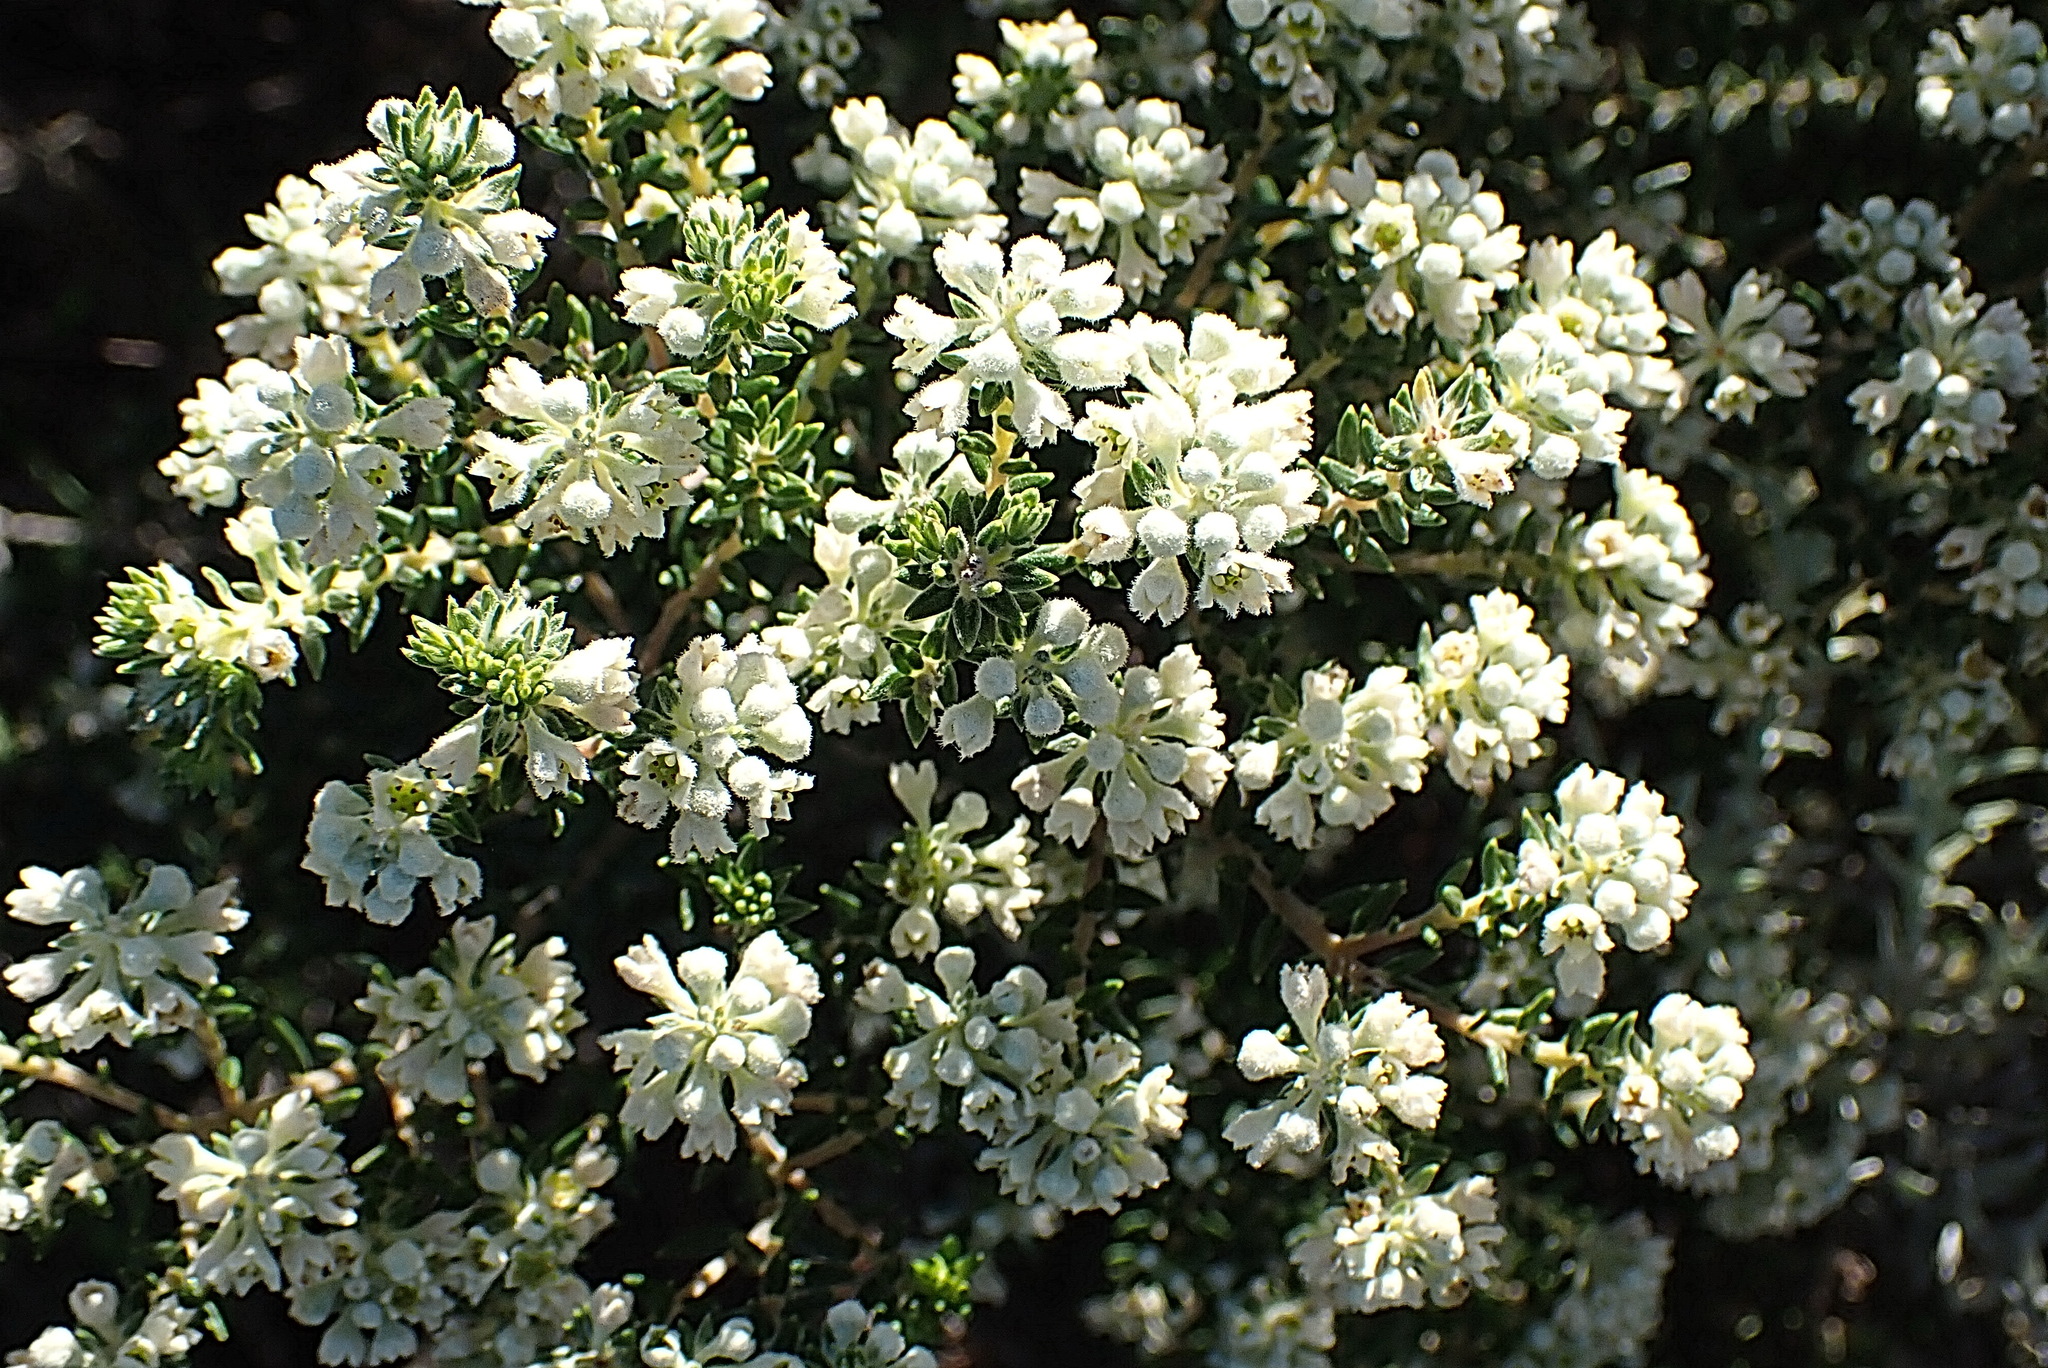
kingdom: Plantae
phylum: Tracheophyta
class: Magnoliopsida
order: Rosales
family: Rhamnaceae
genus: Phylica
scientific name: Phylica axillaris
